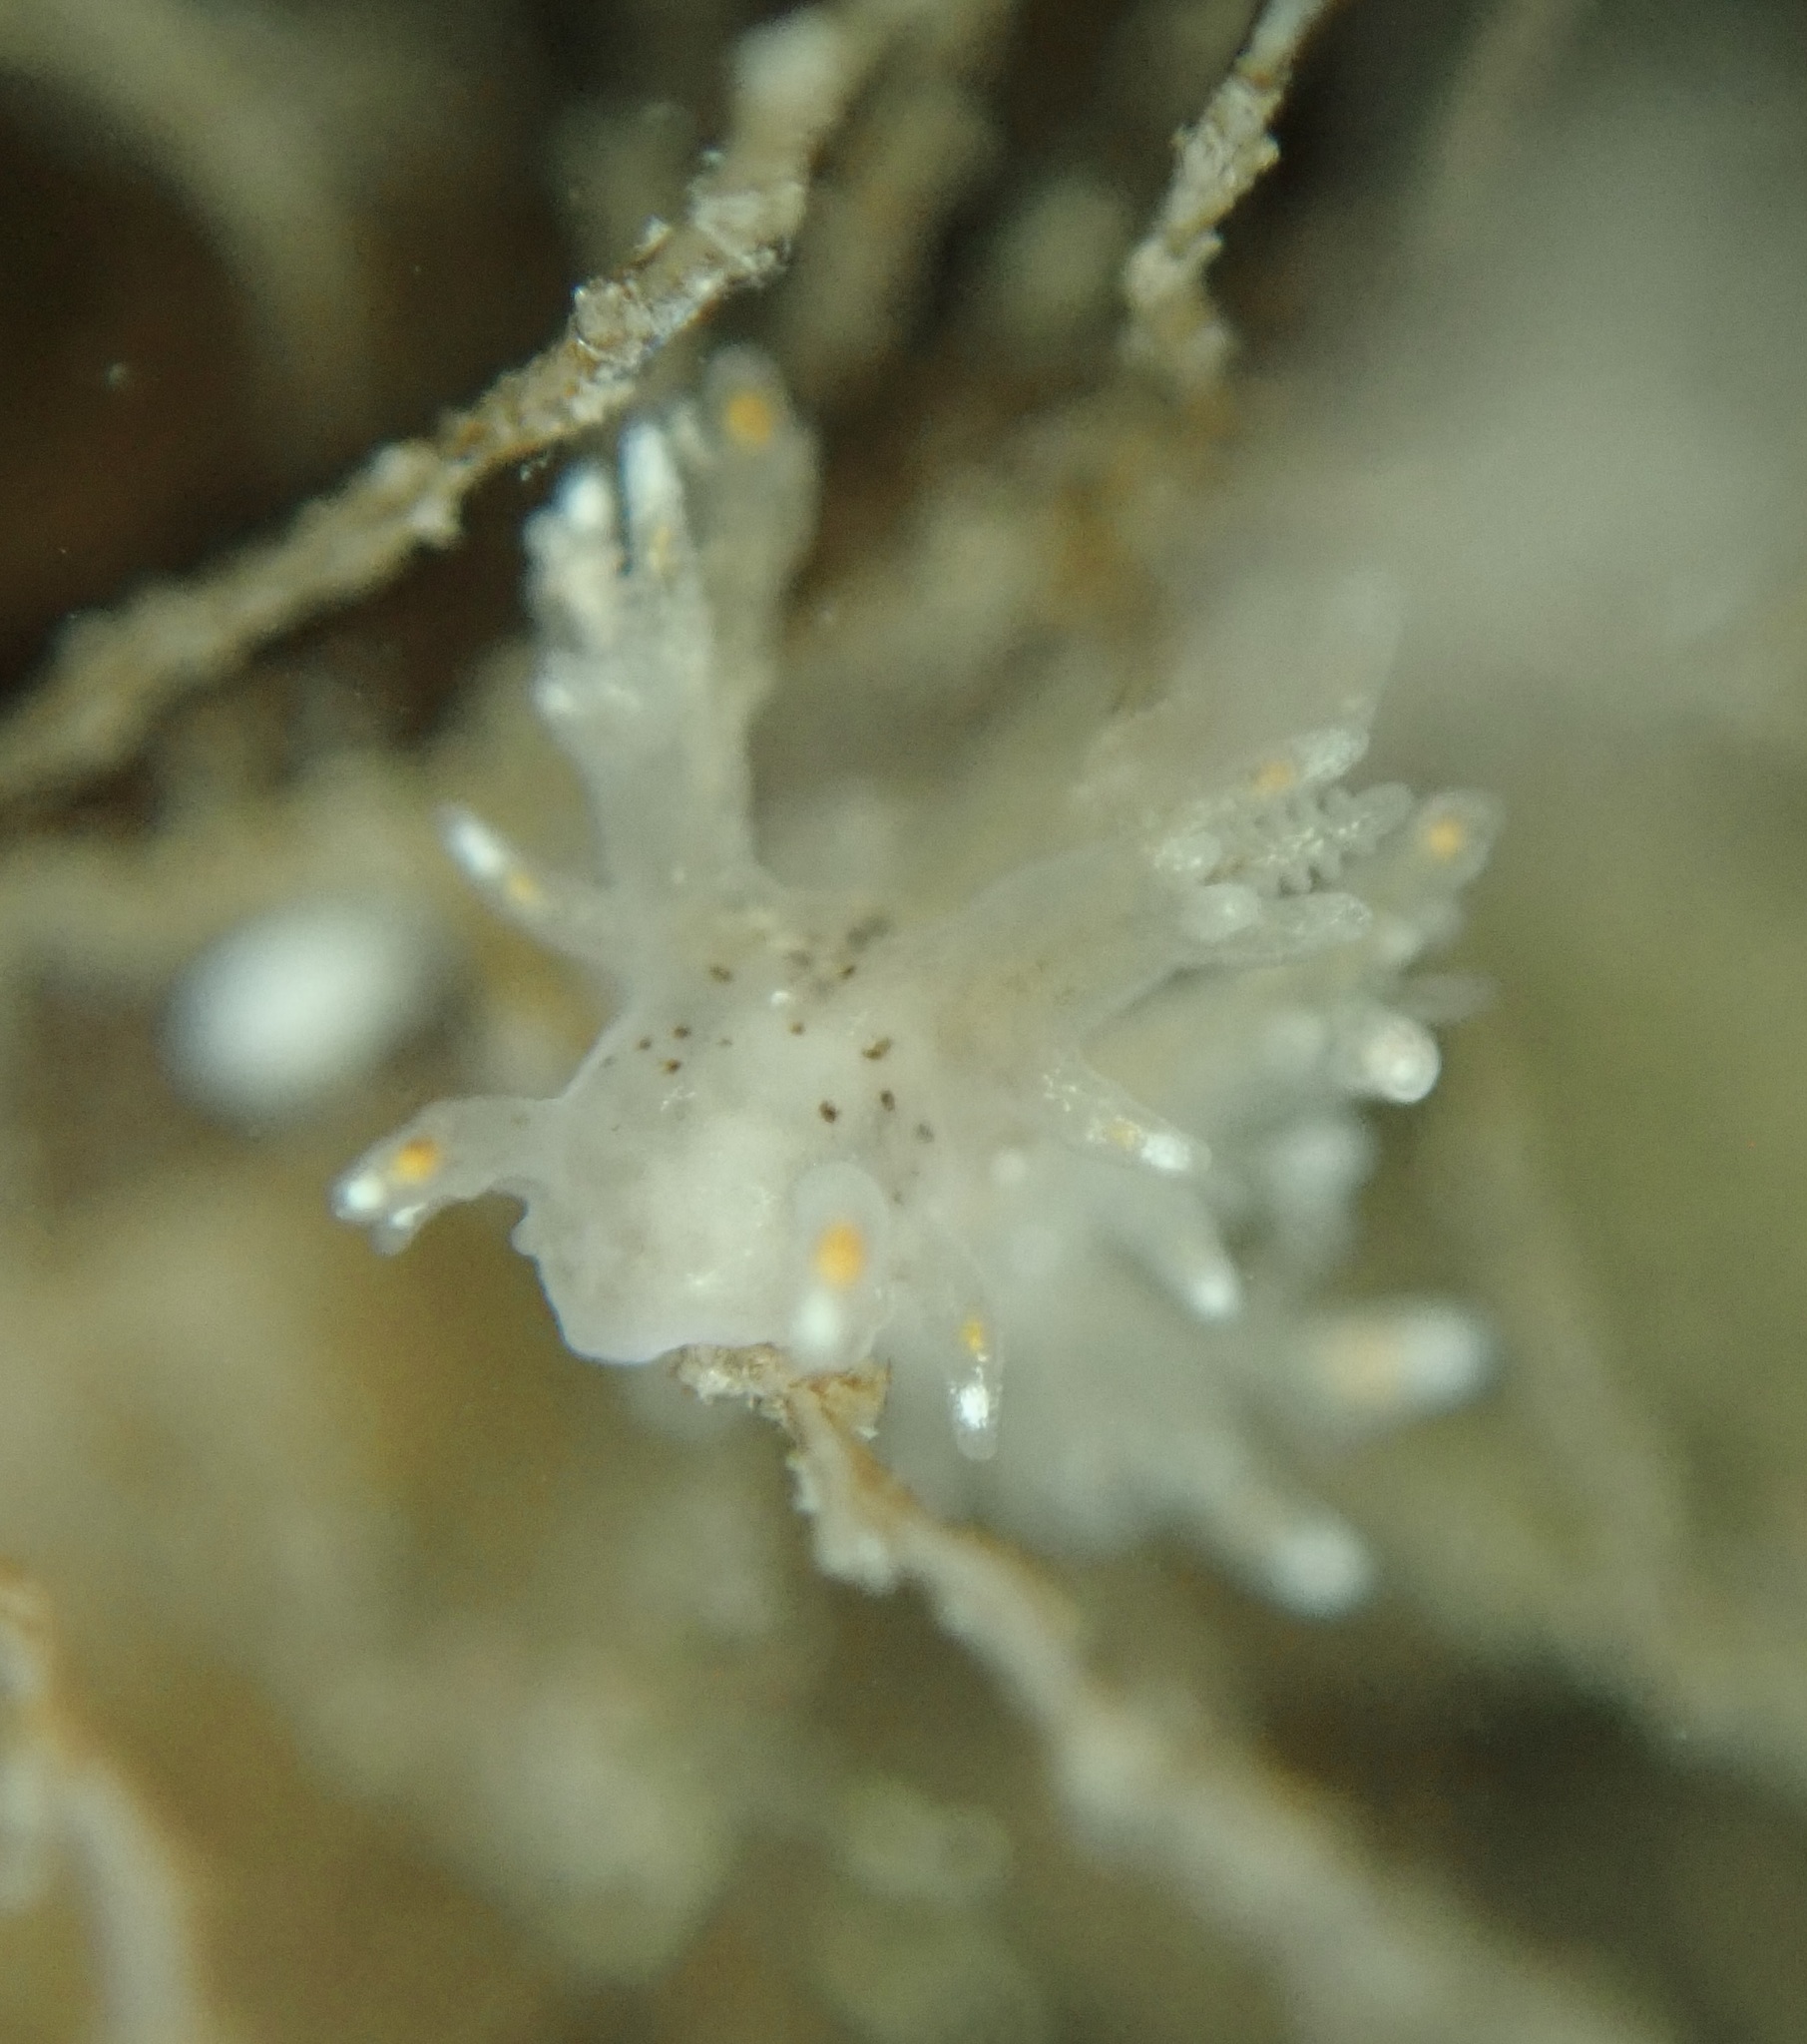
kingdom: Animalia
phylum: Mollusca
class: Gastropoda
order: Nudibranchia
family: Dendronotidae
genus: Dendronotus
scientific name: Dendronotus iris
